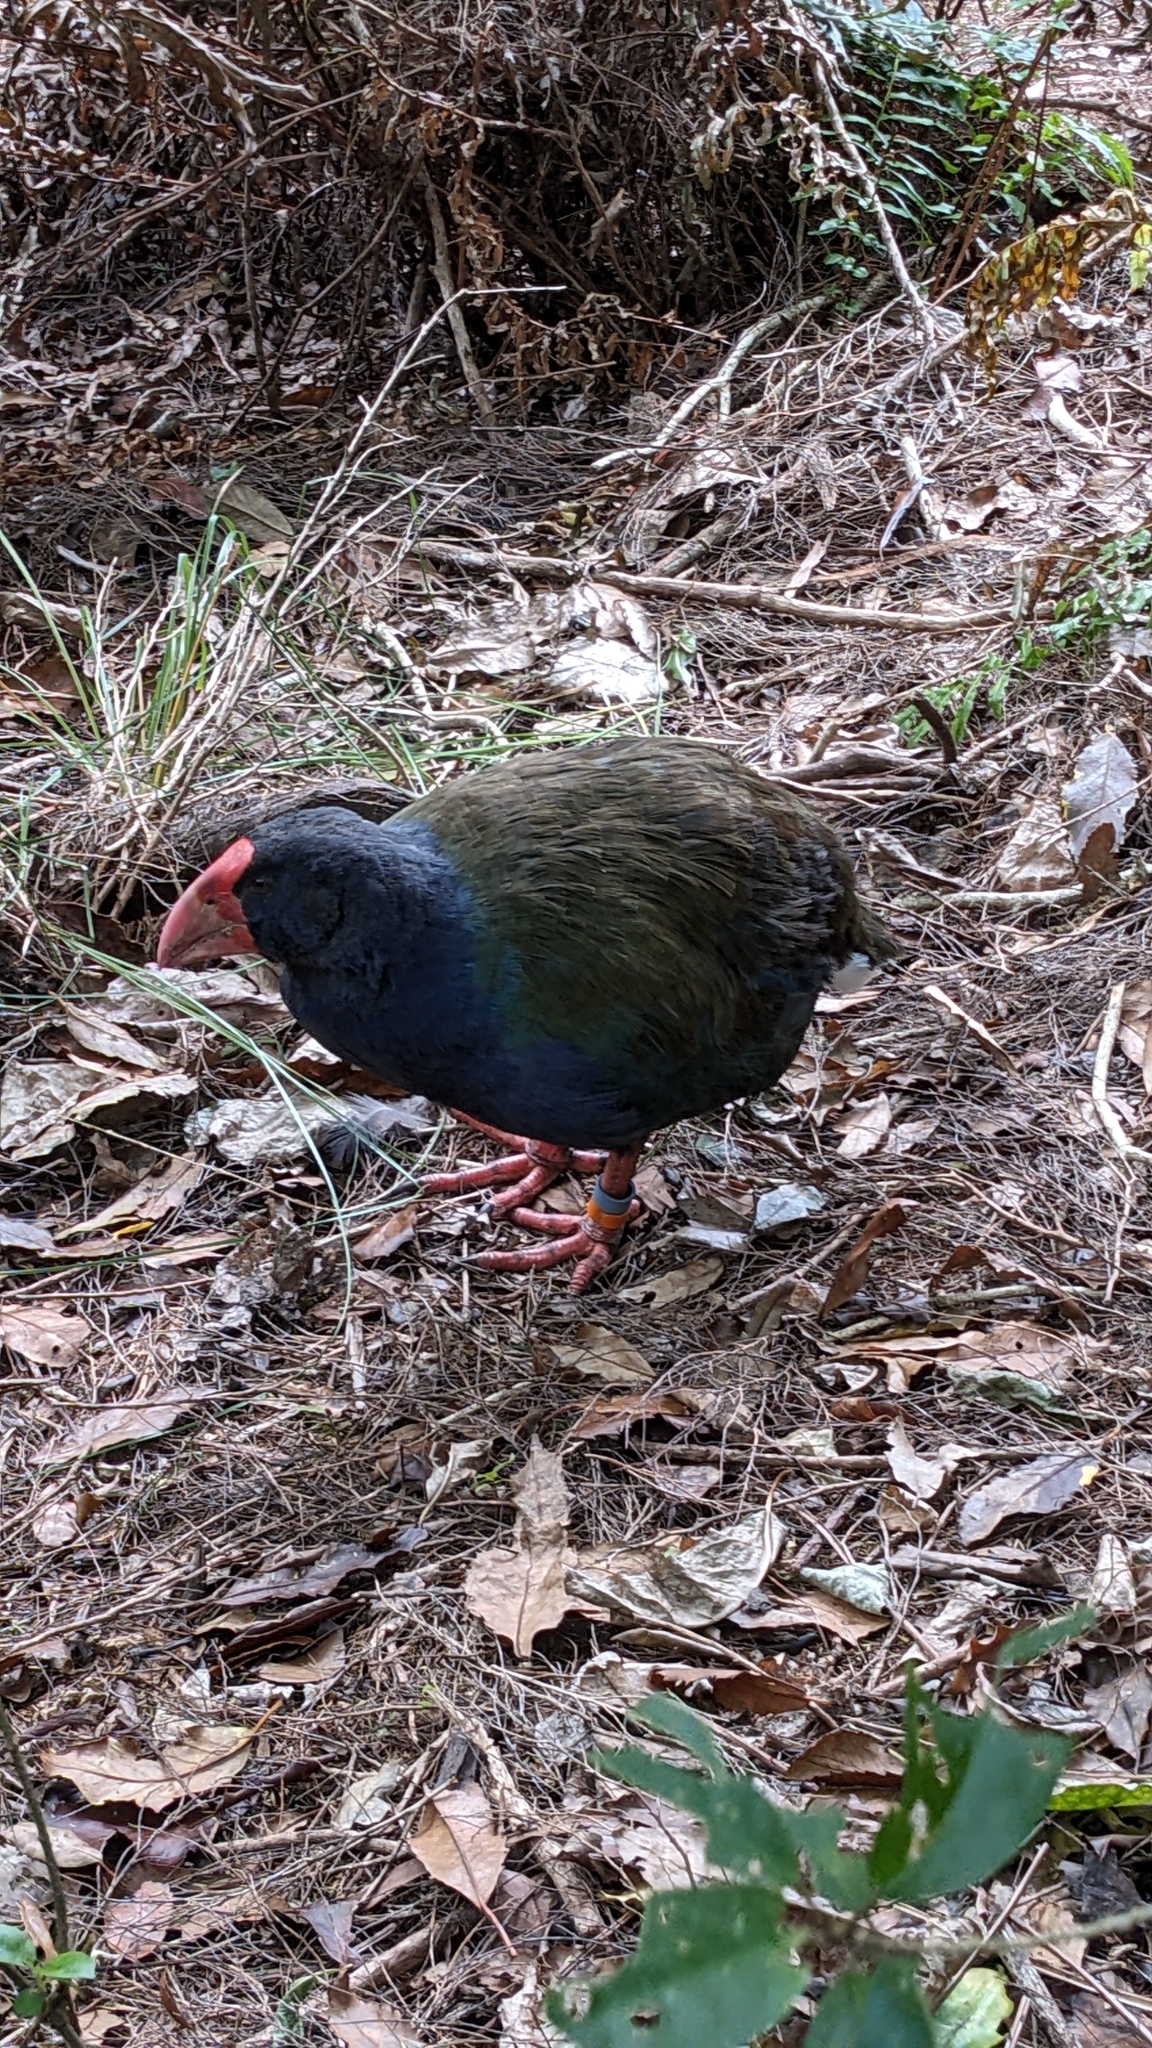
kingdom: Animalia
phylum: Chordata
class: Aves
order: Gruiformes
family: Rallidae
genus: Porphyrio
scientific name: Porphyrio hochstetteri
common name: South island takahe
